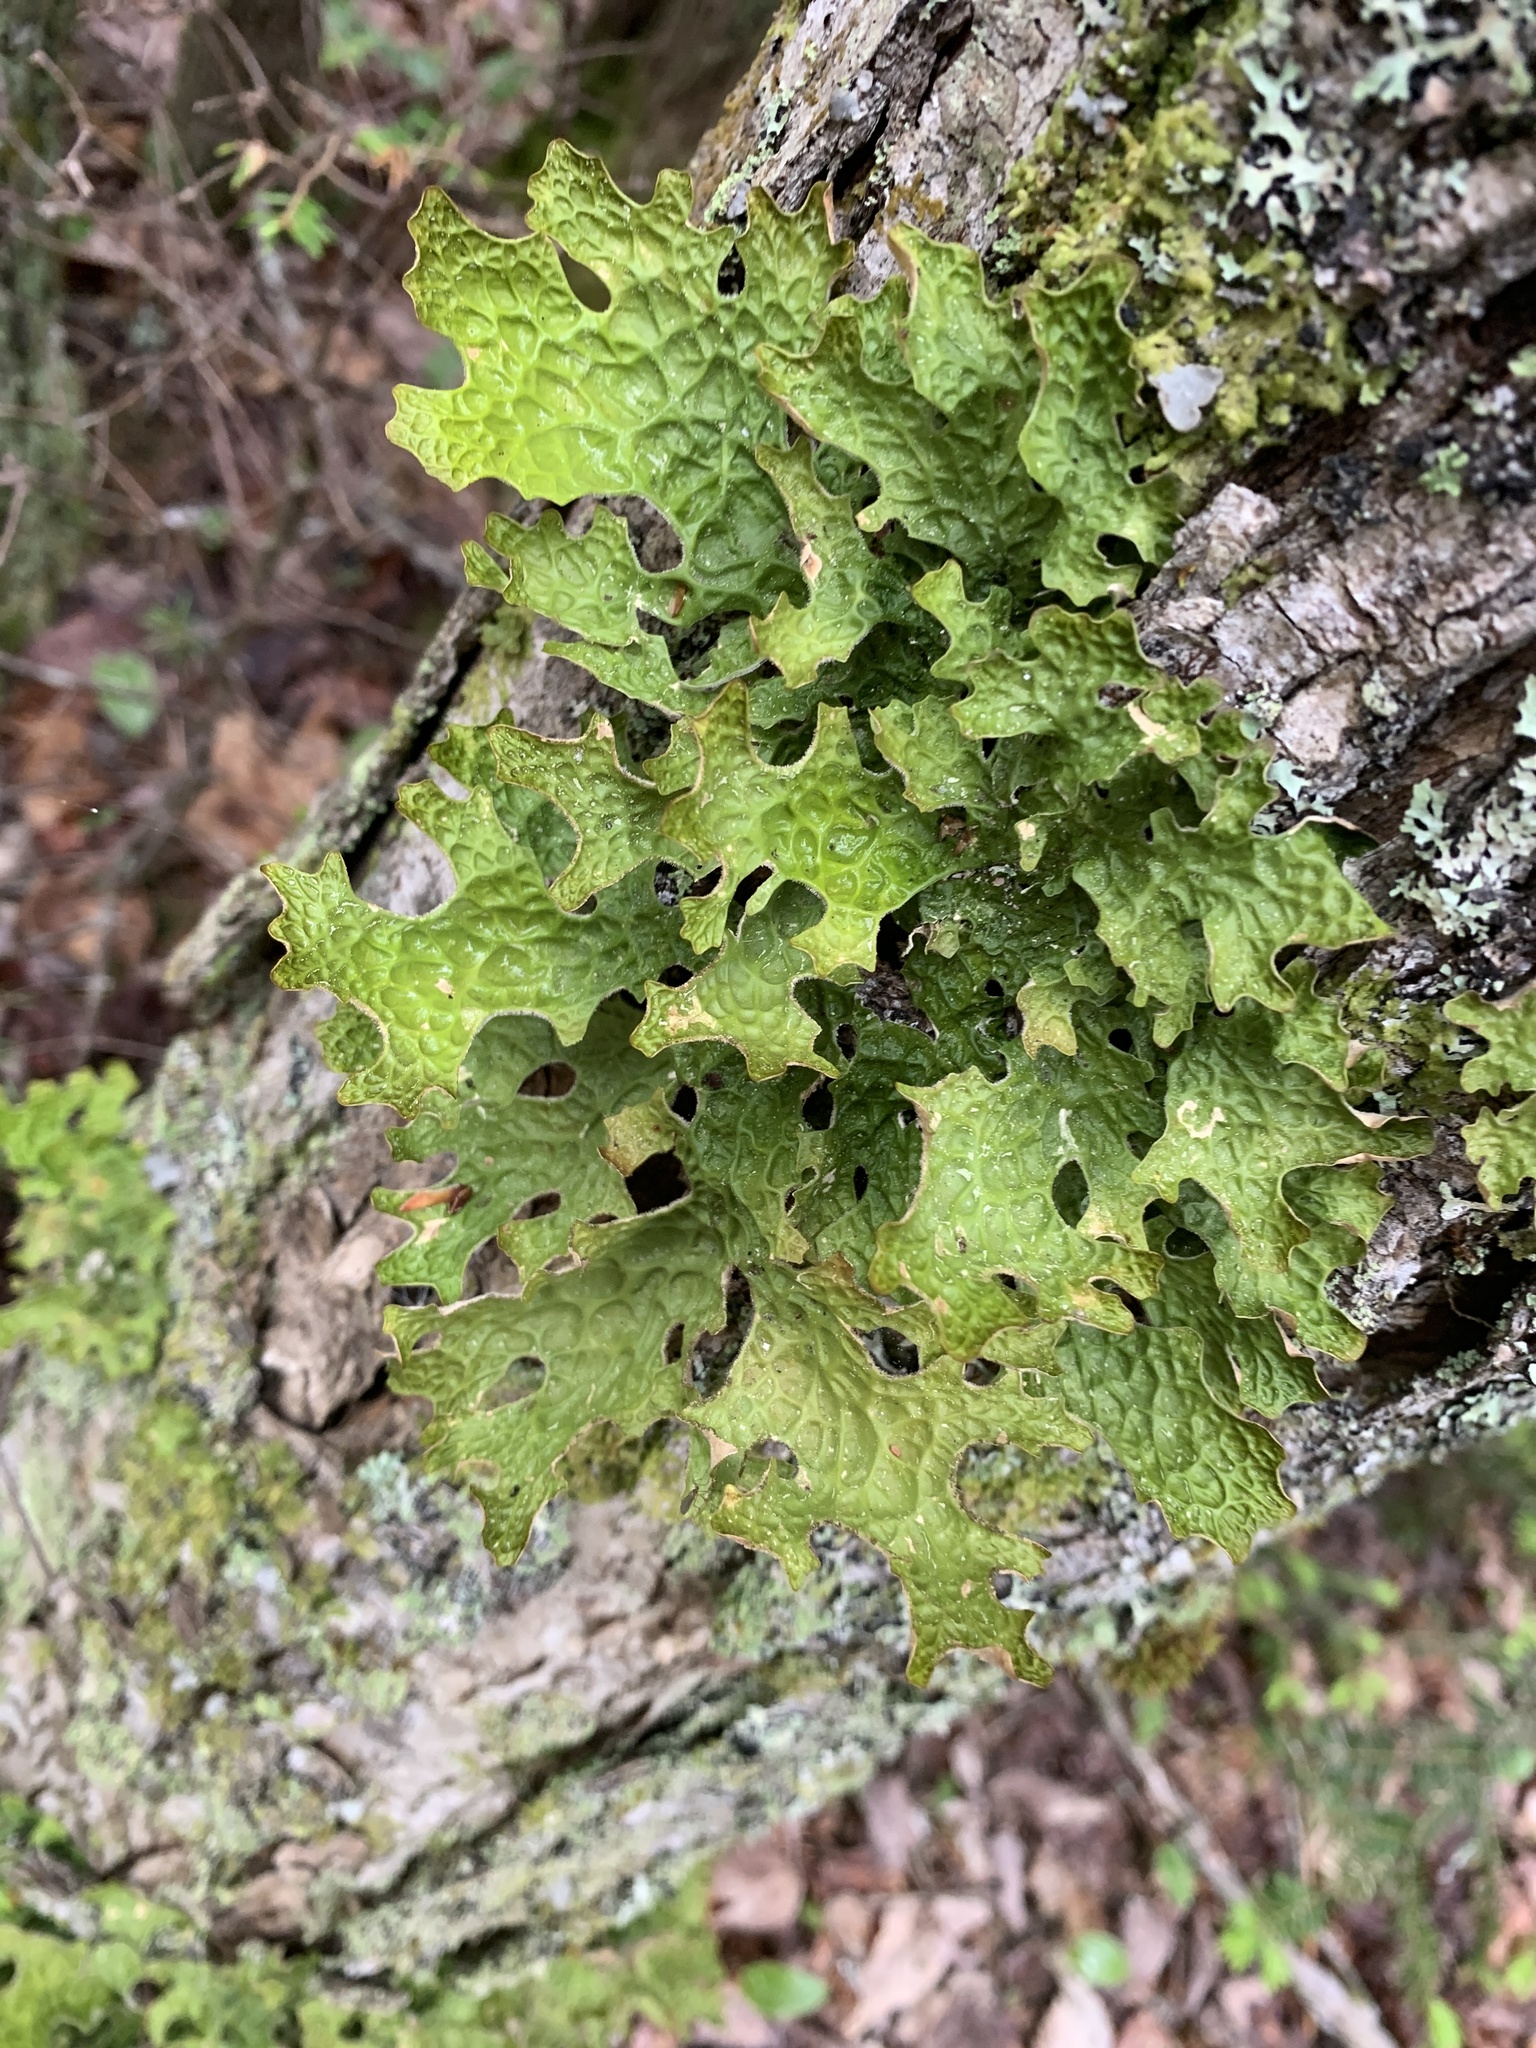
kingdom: Fungi
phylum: Ascomycota
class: Lecanoromycetes
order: Peltigerales
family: Lobariaceae
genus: Lobaria
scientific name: Lobaria pulmonaria
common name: Lungwort
